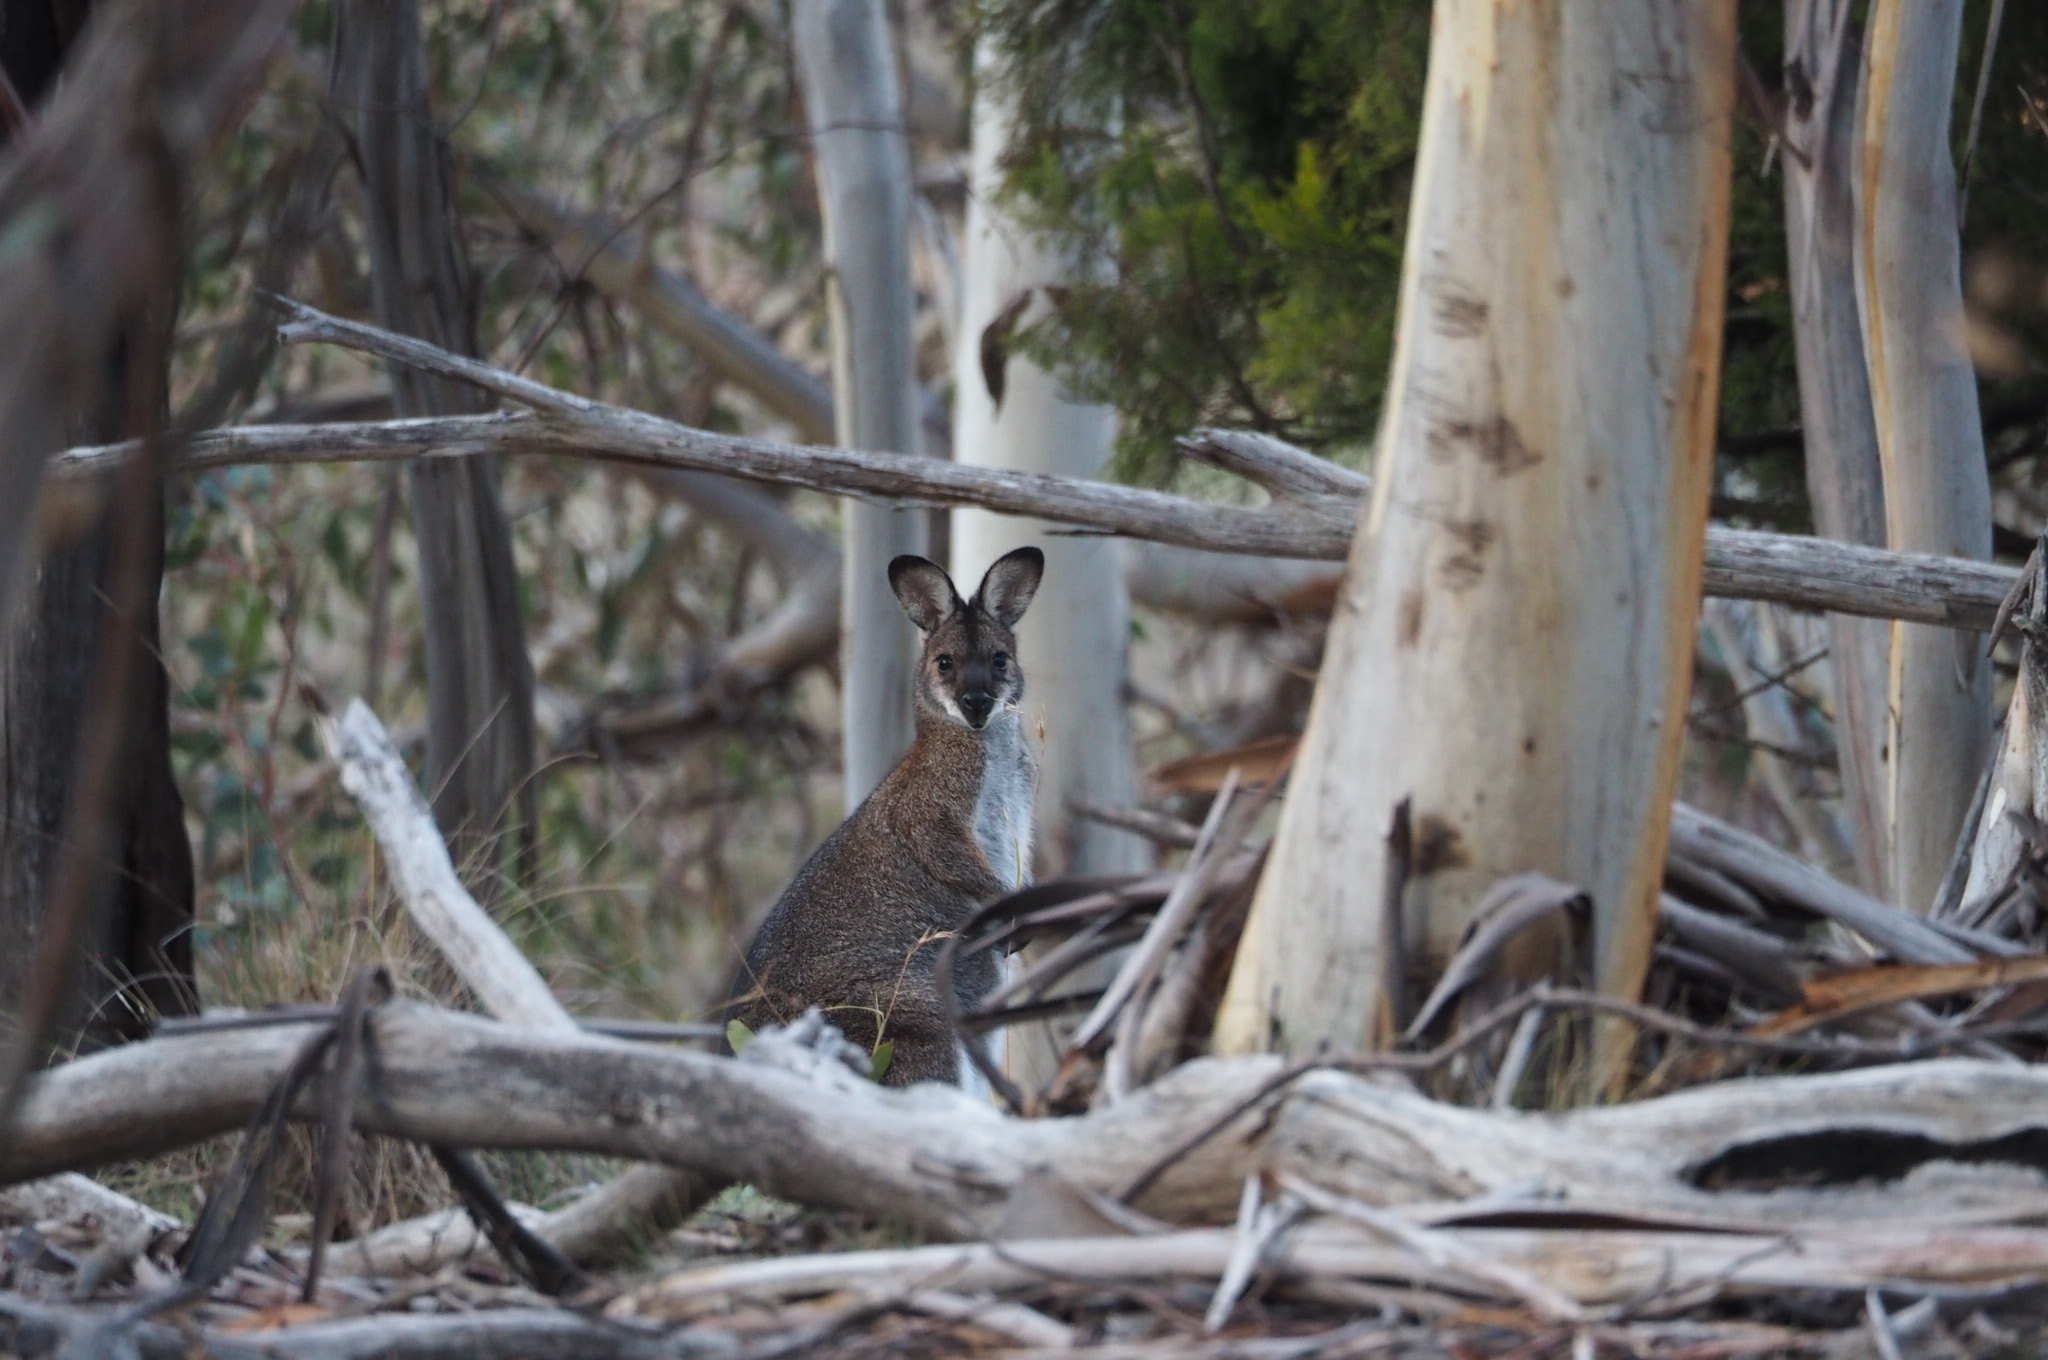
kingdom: Animalia
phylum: Chordata
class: Mammalia
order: Diprotodontia
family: Macropodidae
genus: Notamacropus
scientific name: Notamacropus rufogriseus
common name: Red-necked wallaby
